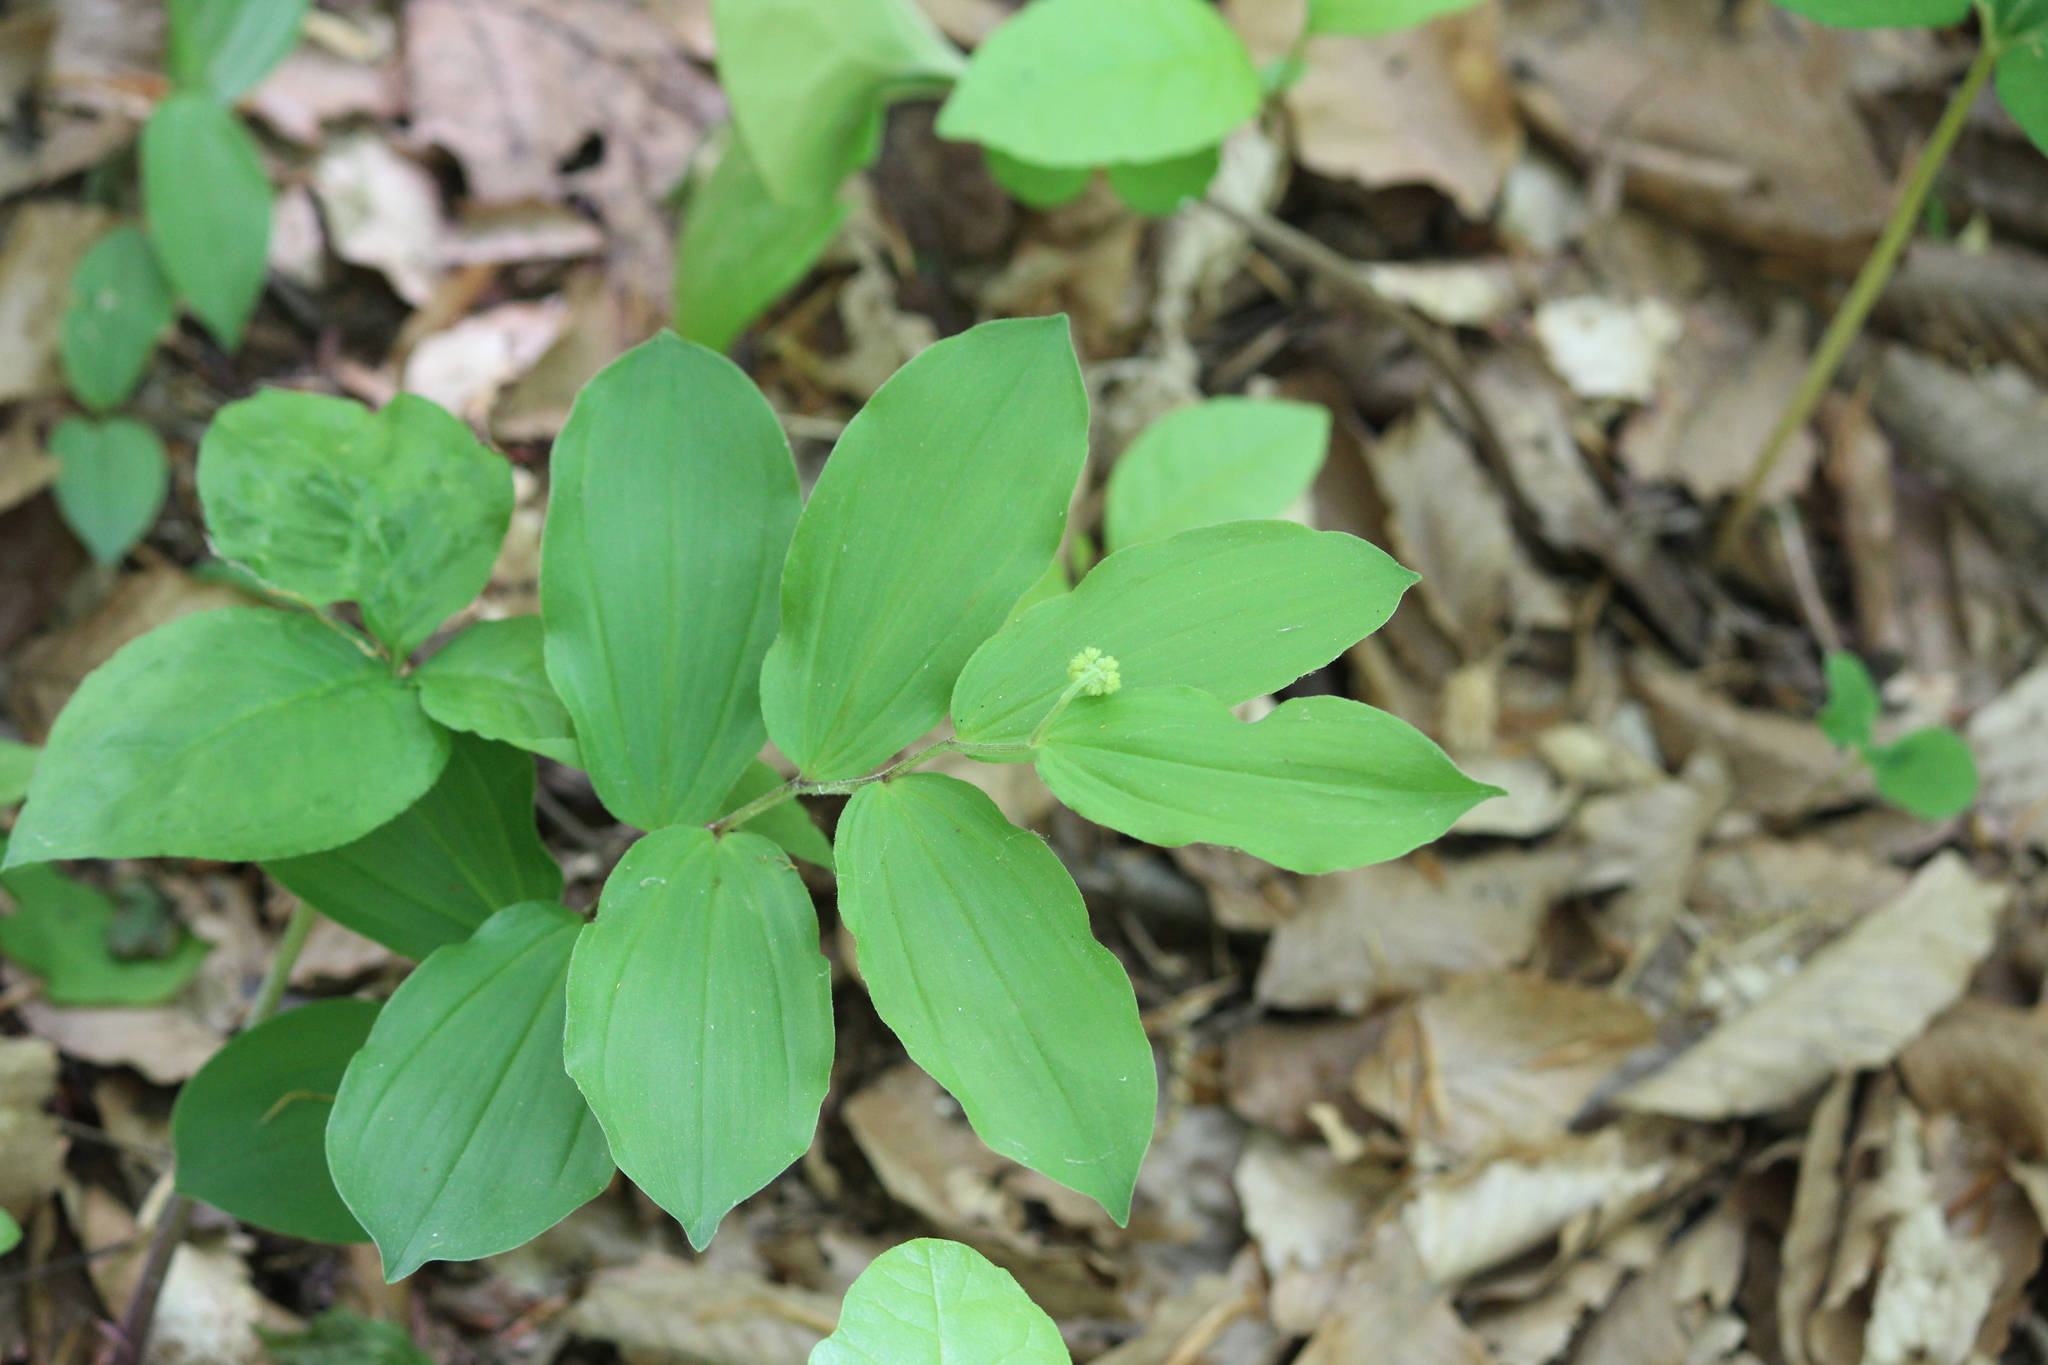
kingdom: Plantae
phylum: Tracheophyta
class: Liliopsida
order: Asparagales
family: Asparagaceae
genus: Maianthemum
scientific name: Maianthemum racemosum
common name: False spikenard
